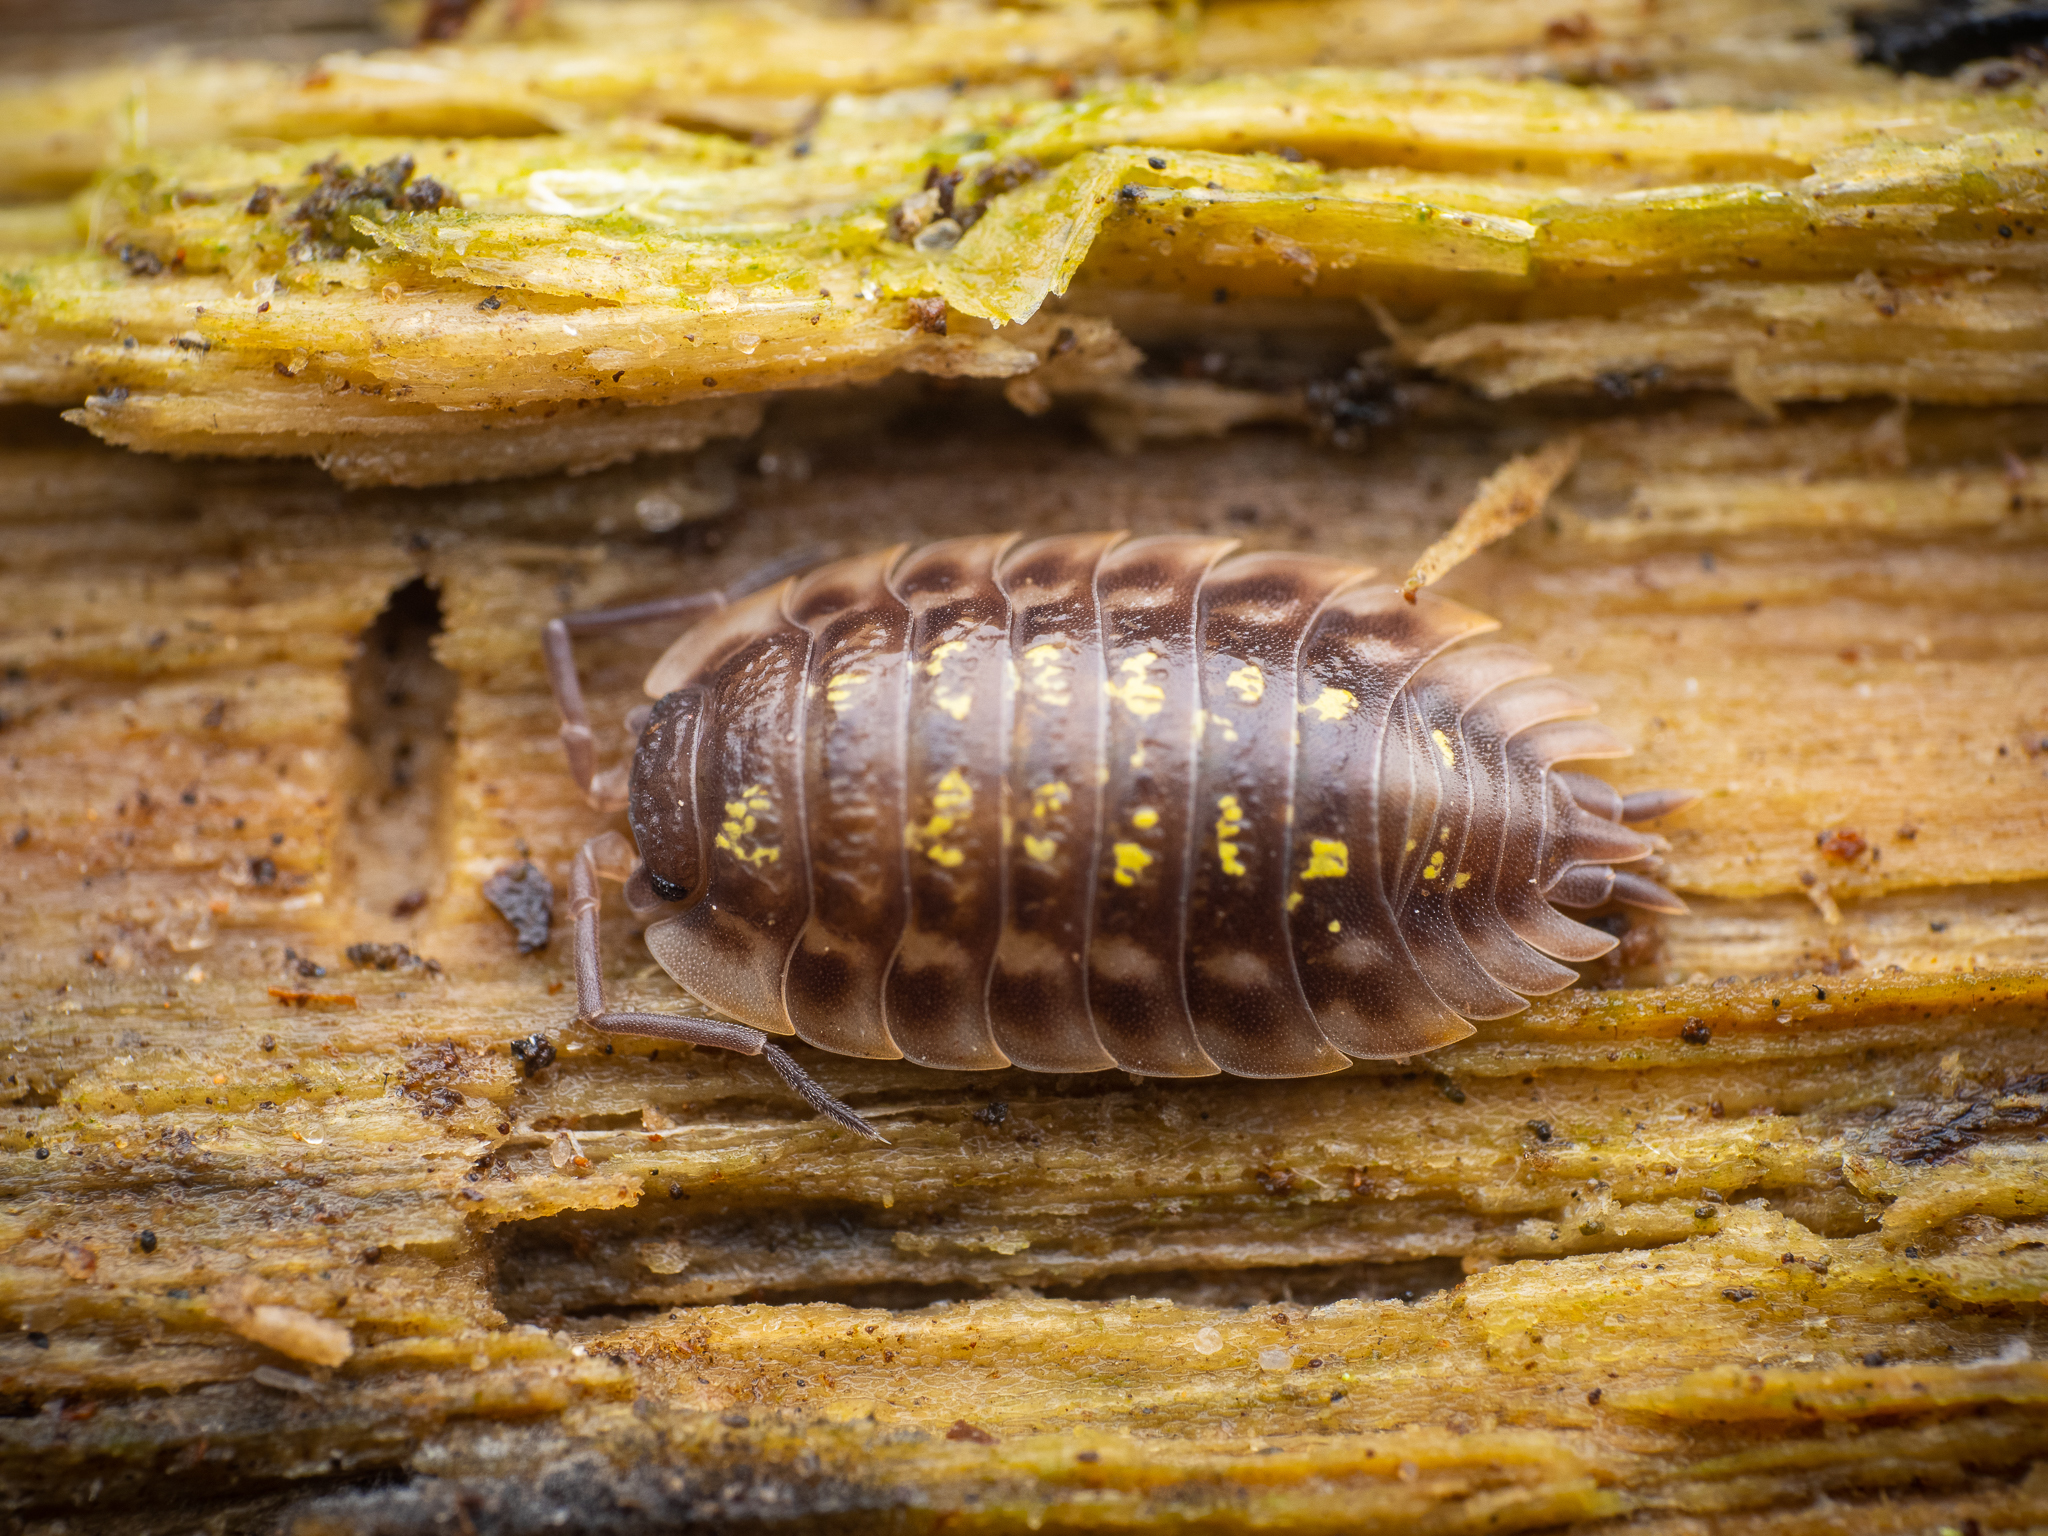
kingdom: Animalia
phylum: Arthropoda
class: Malacostraca
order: Isopoda
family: Oniscidae
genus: Oniscus
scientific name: Oniscus asellus
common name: Common shiny woodlouse
